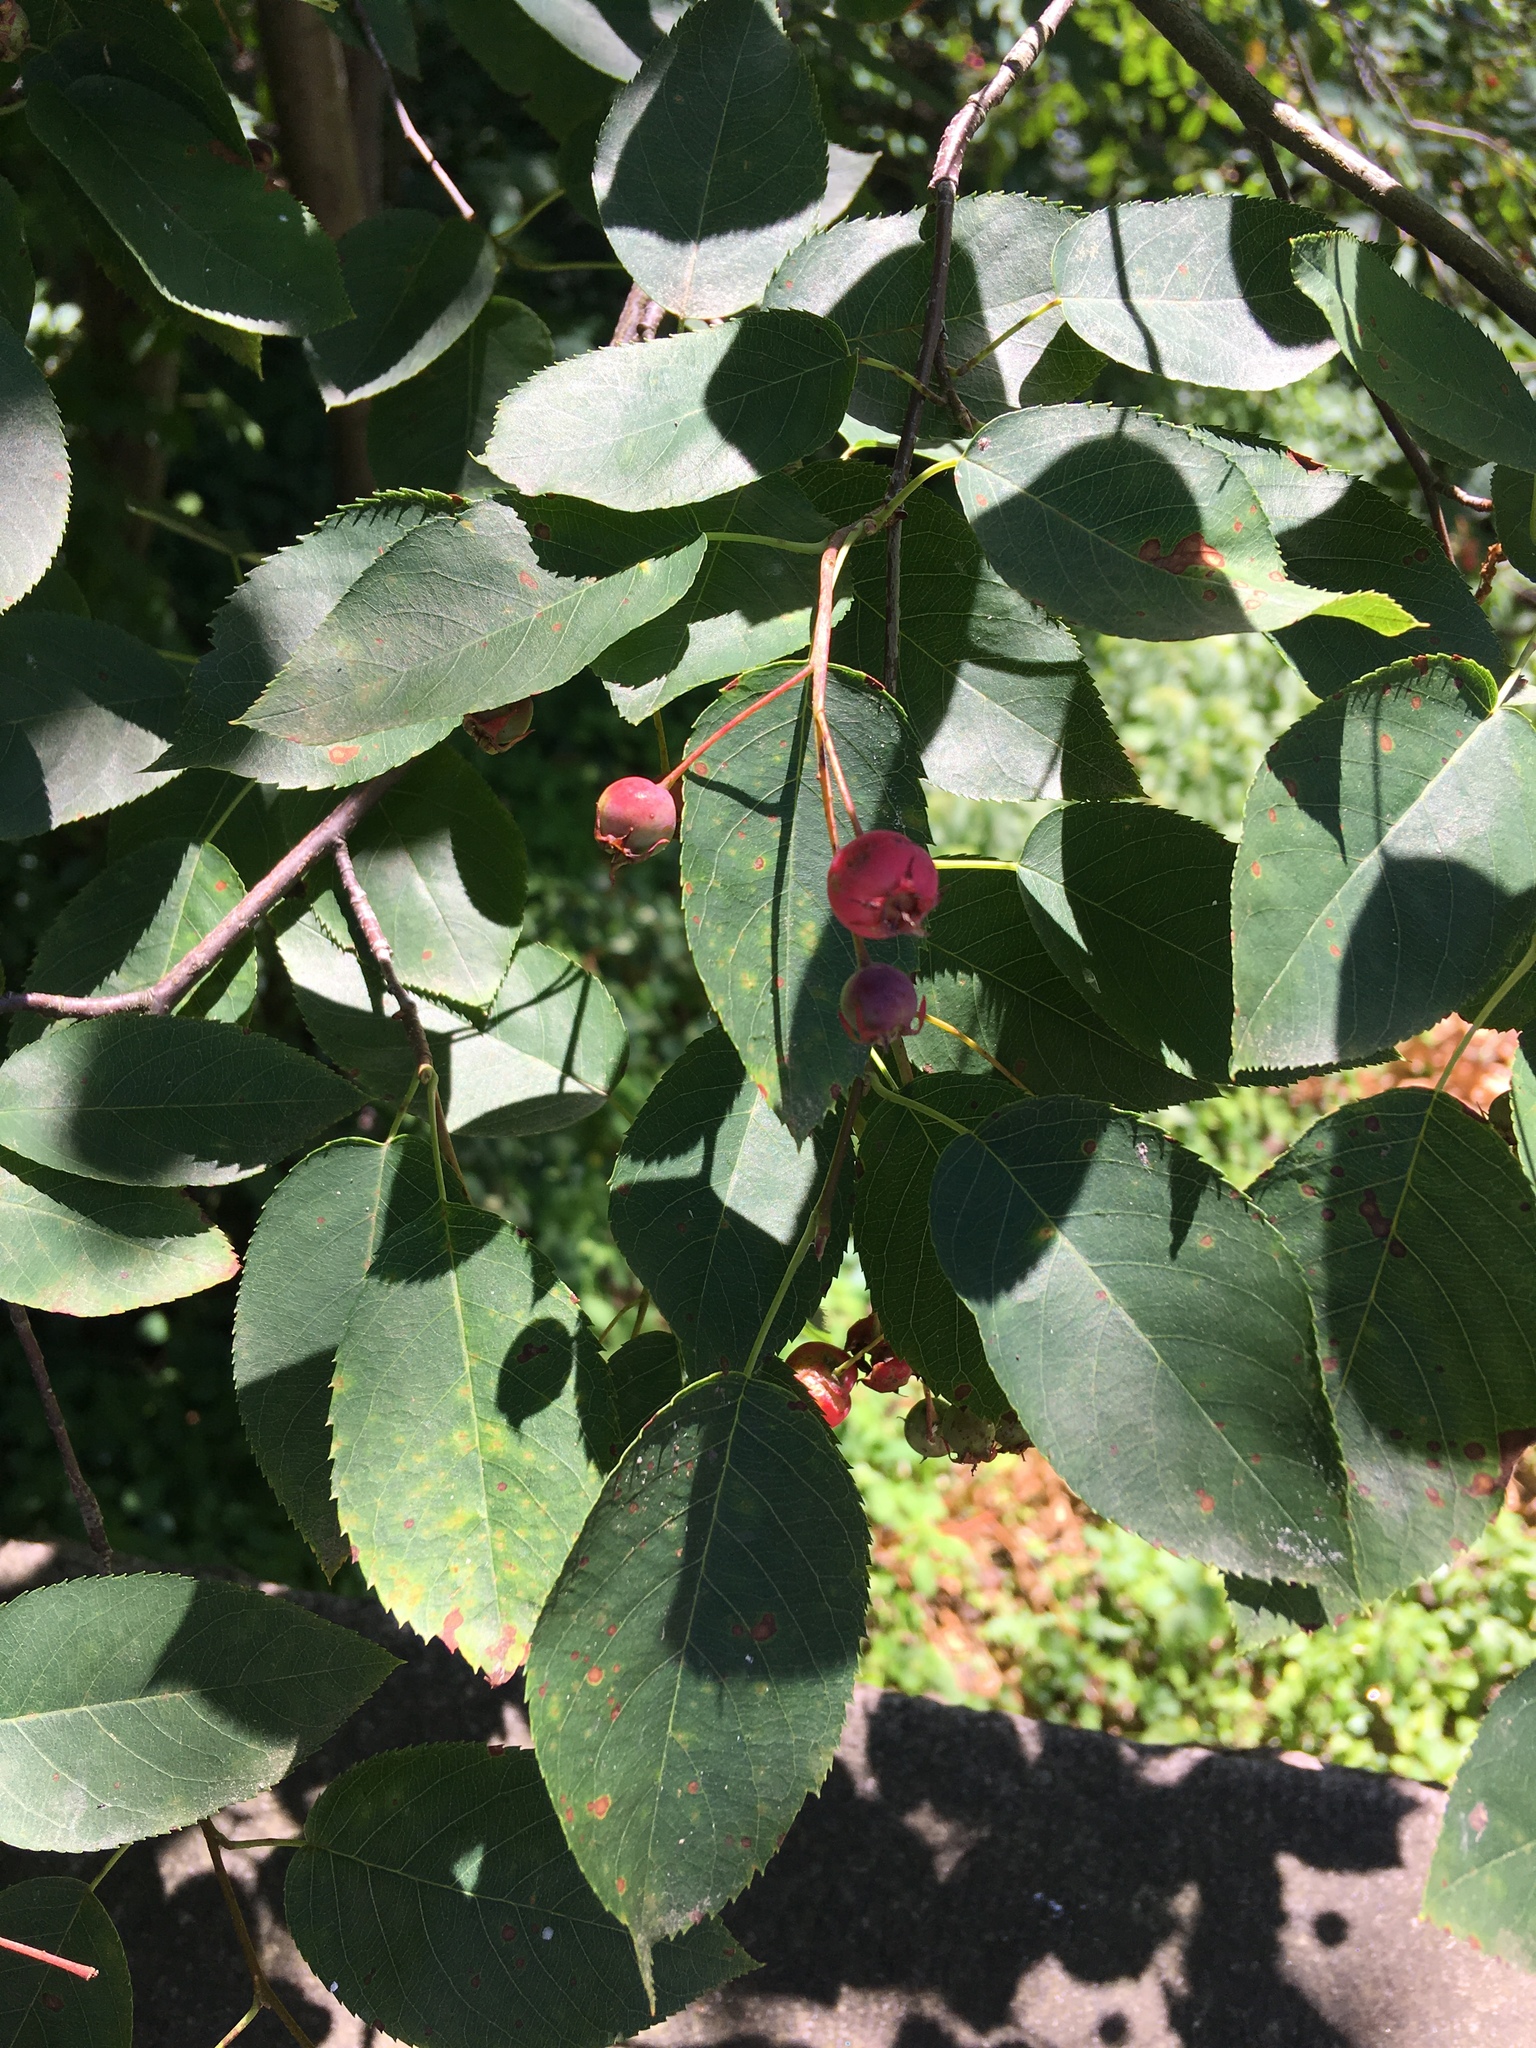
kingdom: Plantae
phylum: Tracheophyta
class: Magnoliopsida
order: Rosales
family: Rosaceae
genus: Amelanchier
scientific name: Amelanchier laevis
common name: Allegheny serviceberry
